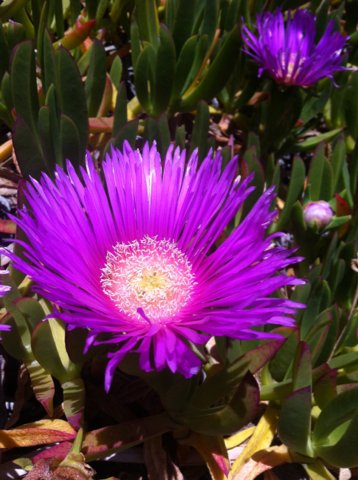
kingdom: Plantae
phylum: Tracheophyta
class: Magnoliopsida
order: Caryophyllales
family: Aizoaceae
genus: Carpobrotus
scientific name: Carpobrotus edulis
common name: Hottentot-fig
